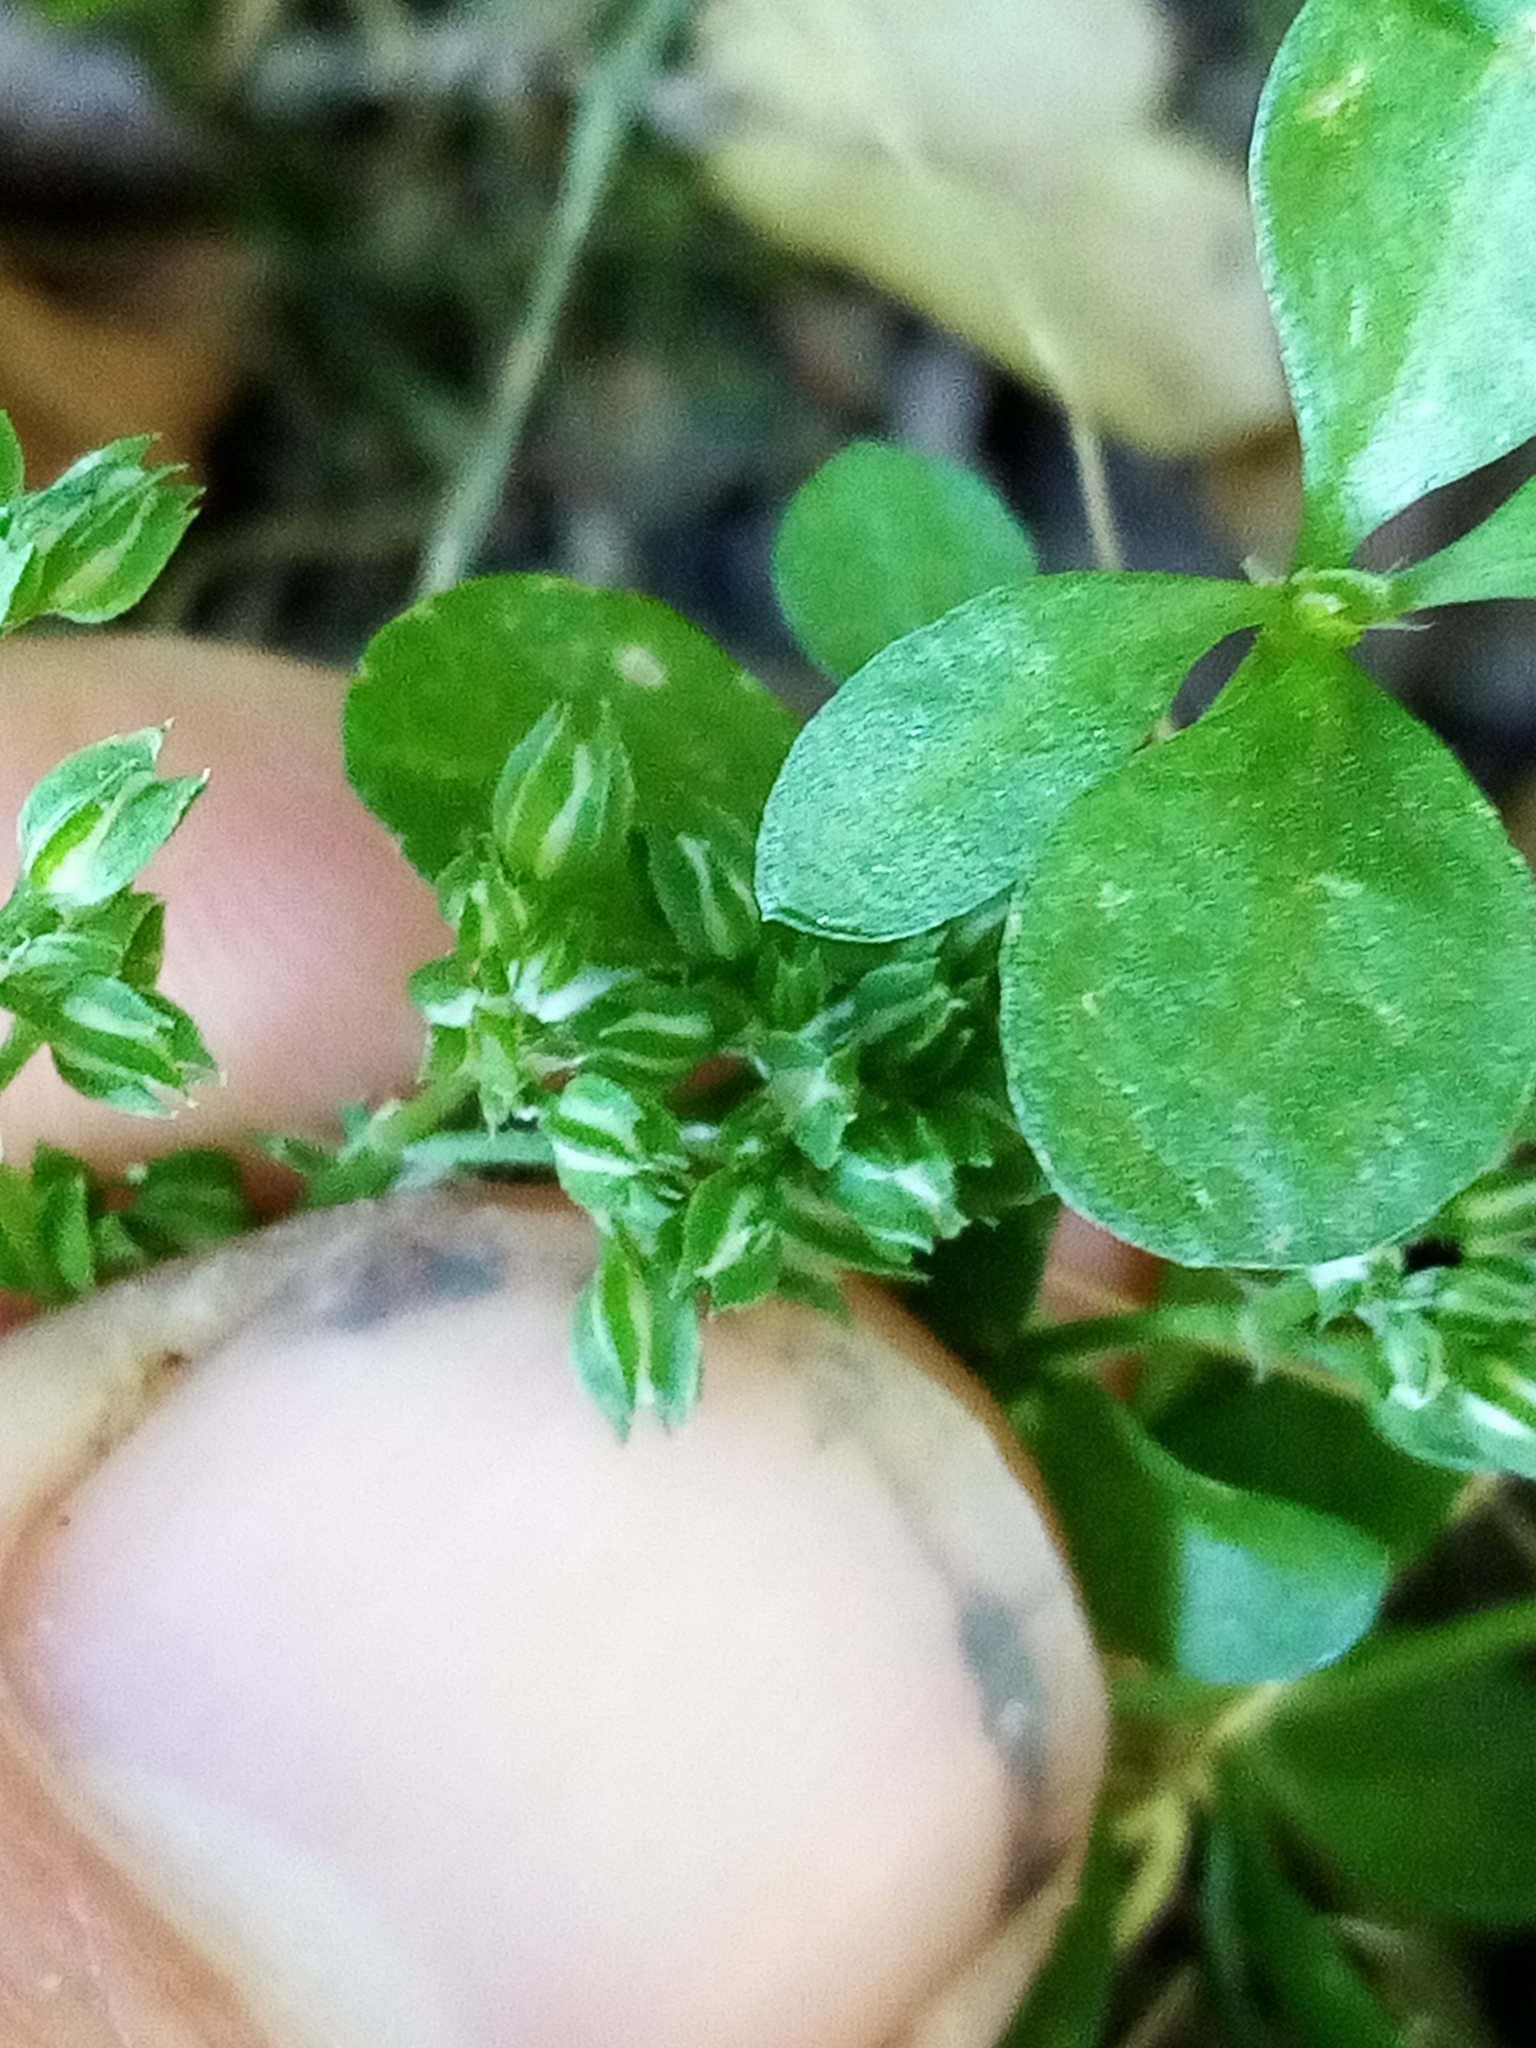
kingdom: Plantae
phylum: Tracheophyta
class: Magnoliopsida
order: Caryophyllales
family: Caryophyllaceae
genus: Polycarpon
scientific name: Polycarpon tetraphyllum
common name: Four-leaved all-seed
